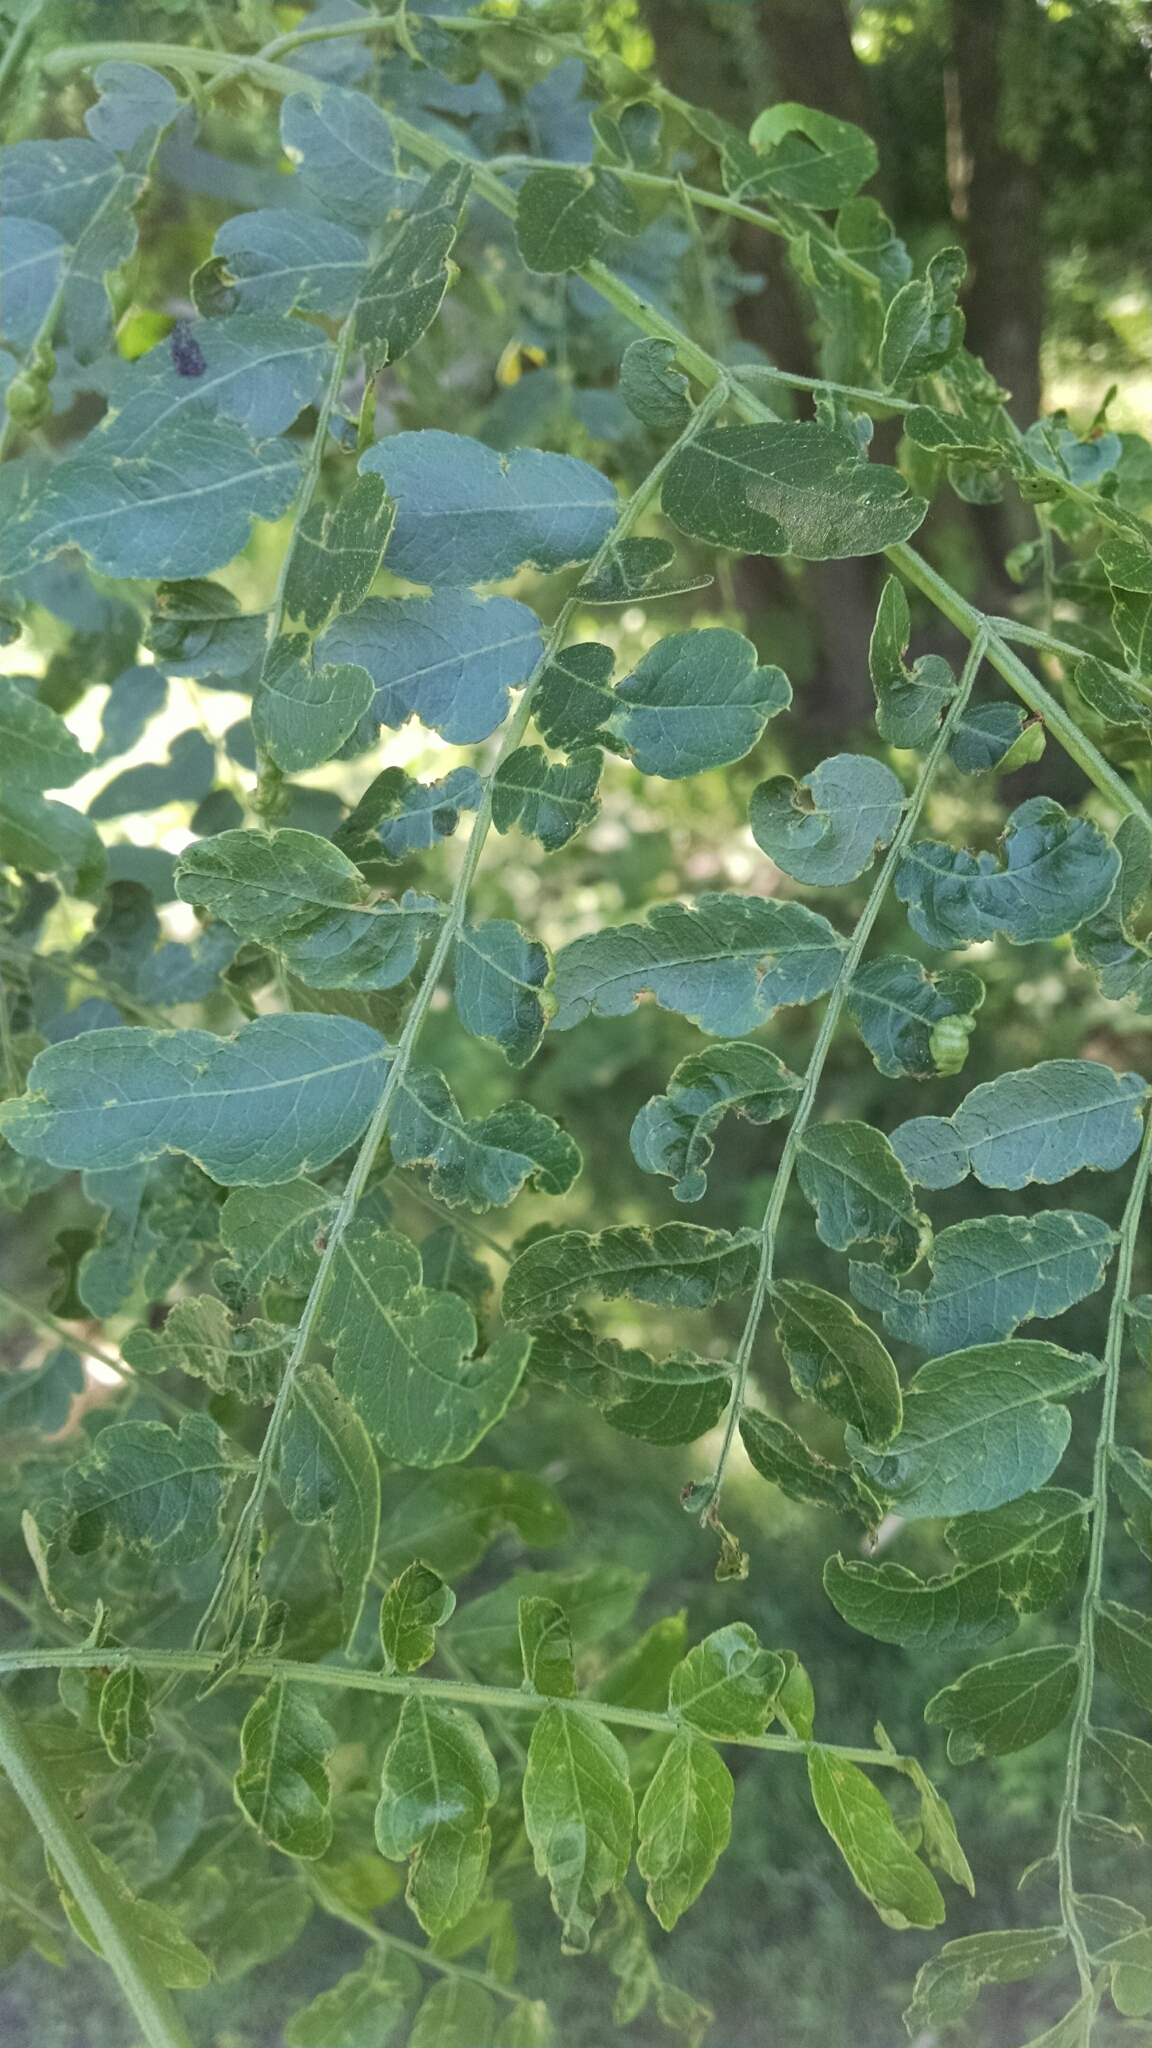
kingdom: Plantae
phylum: Tracheophyta
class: Magnoliopsida
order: Fabales
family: Fabaceae
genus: Gleditsia
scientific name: Gleditsia triacanthos
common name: Common honeylocust
